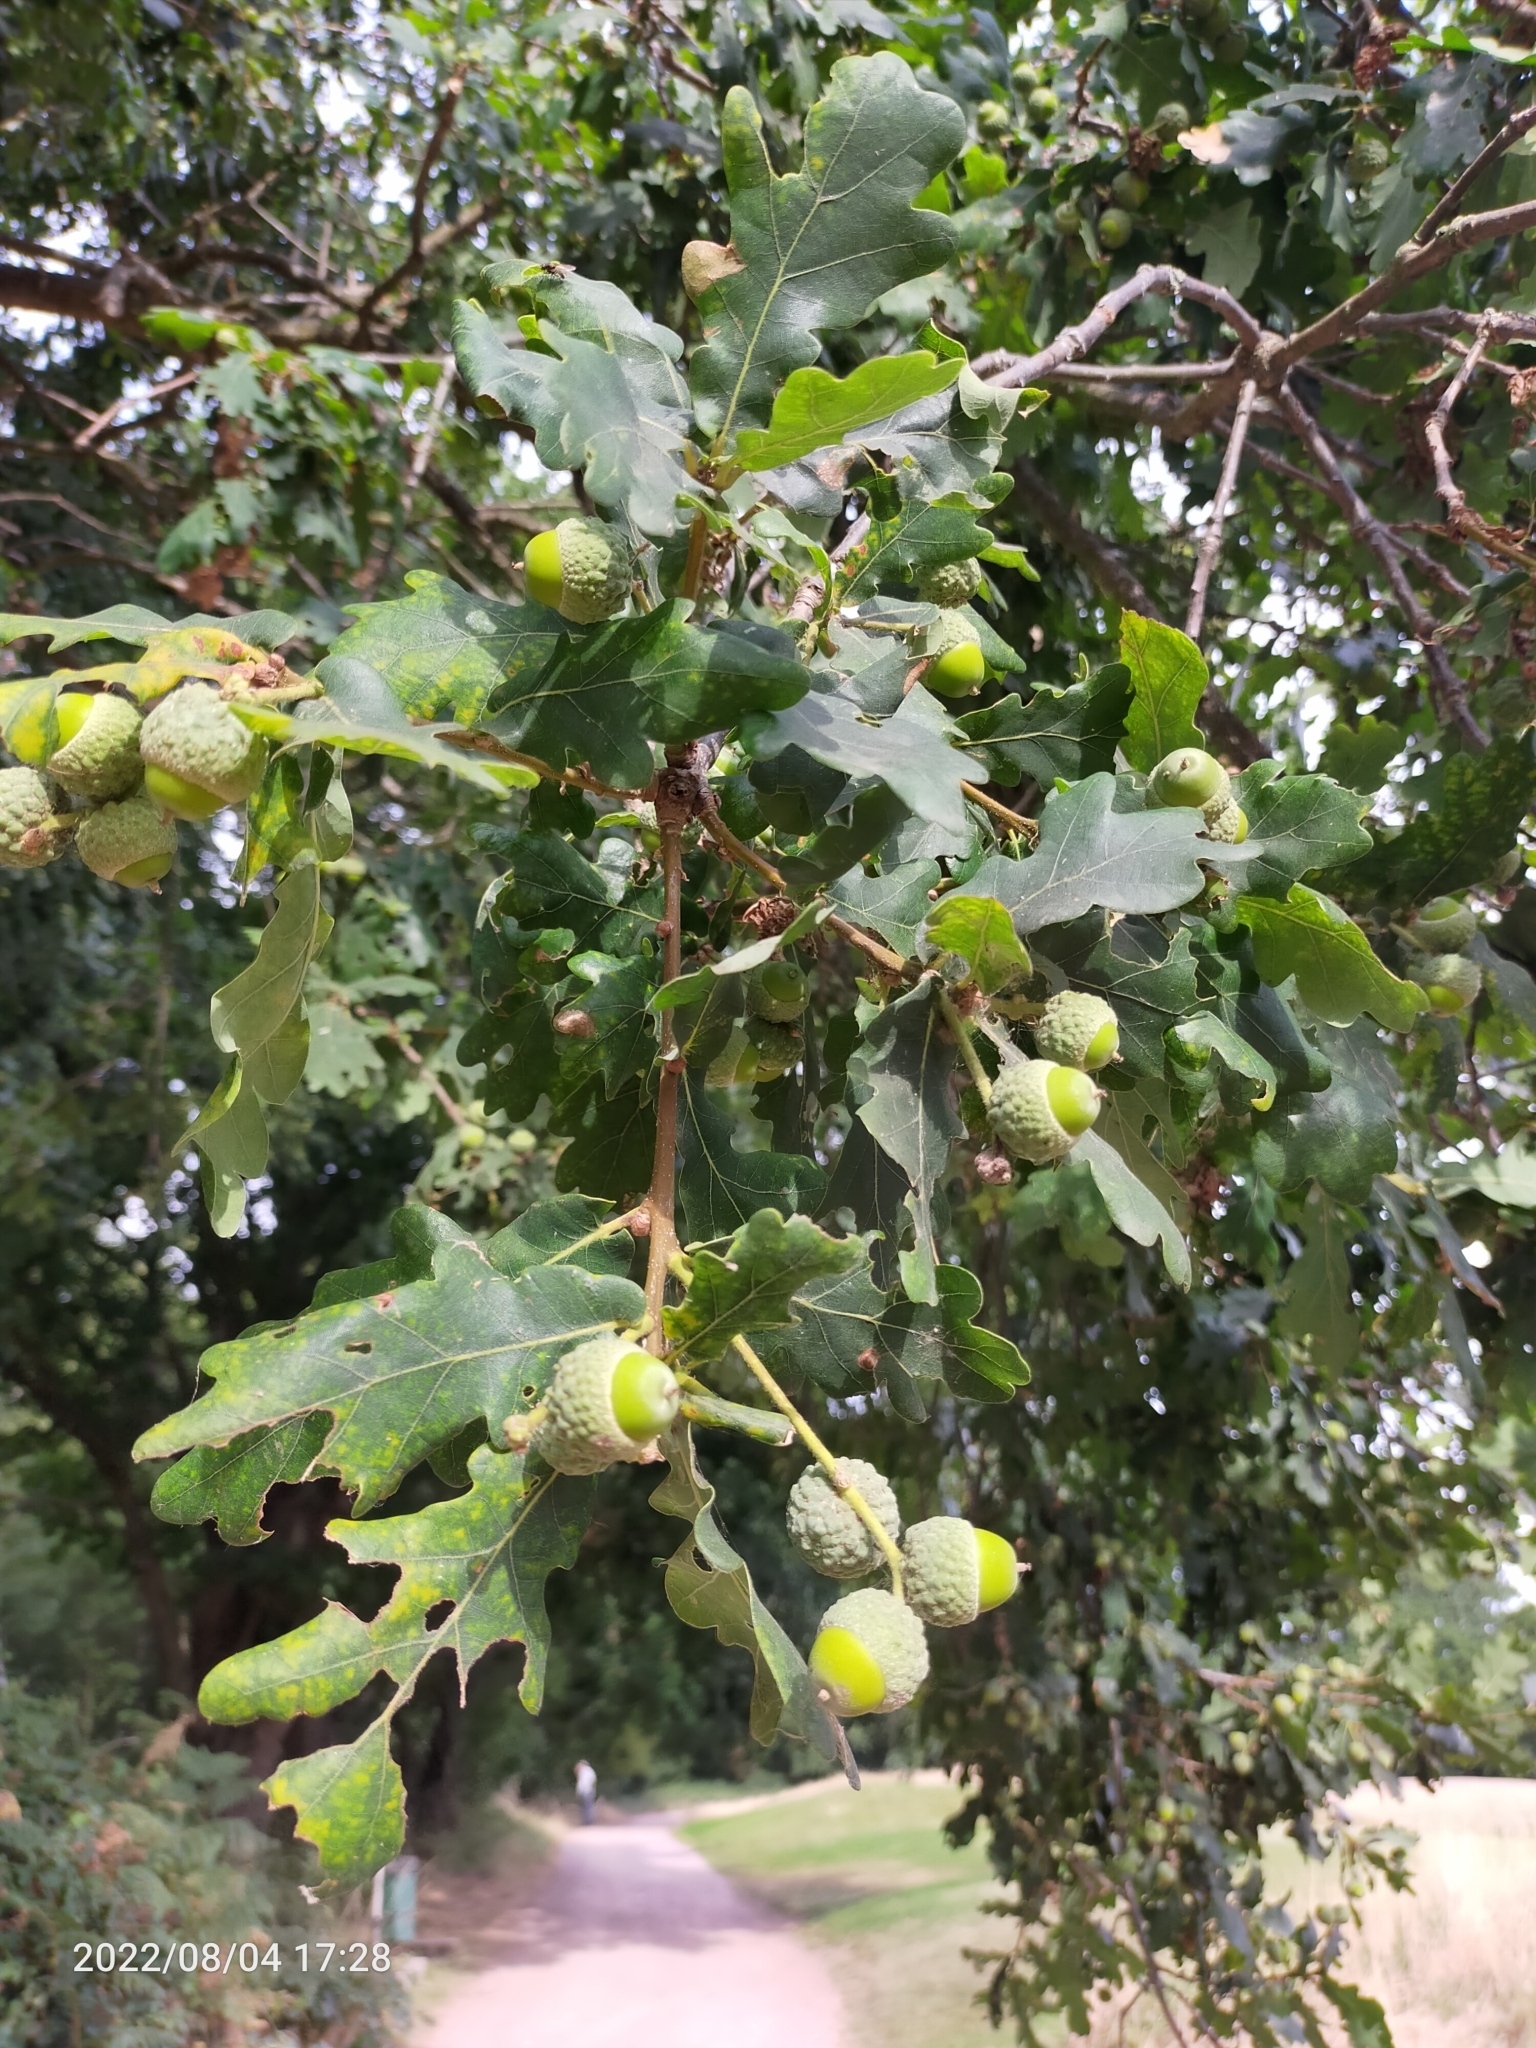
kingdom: Plantae
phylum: Tracheophyta
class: Magnoliopsida
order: Fagales
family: Fagaceae
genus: Quercus
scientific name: Quercus robur
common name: Pedunculate oak
